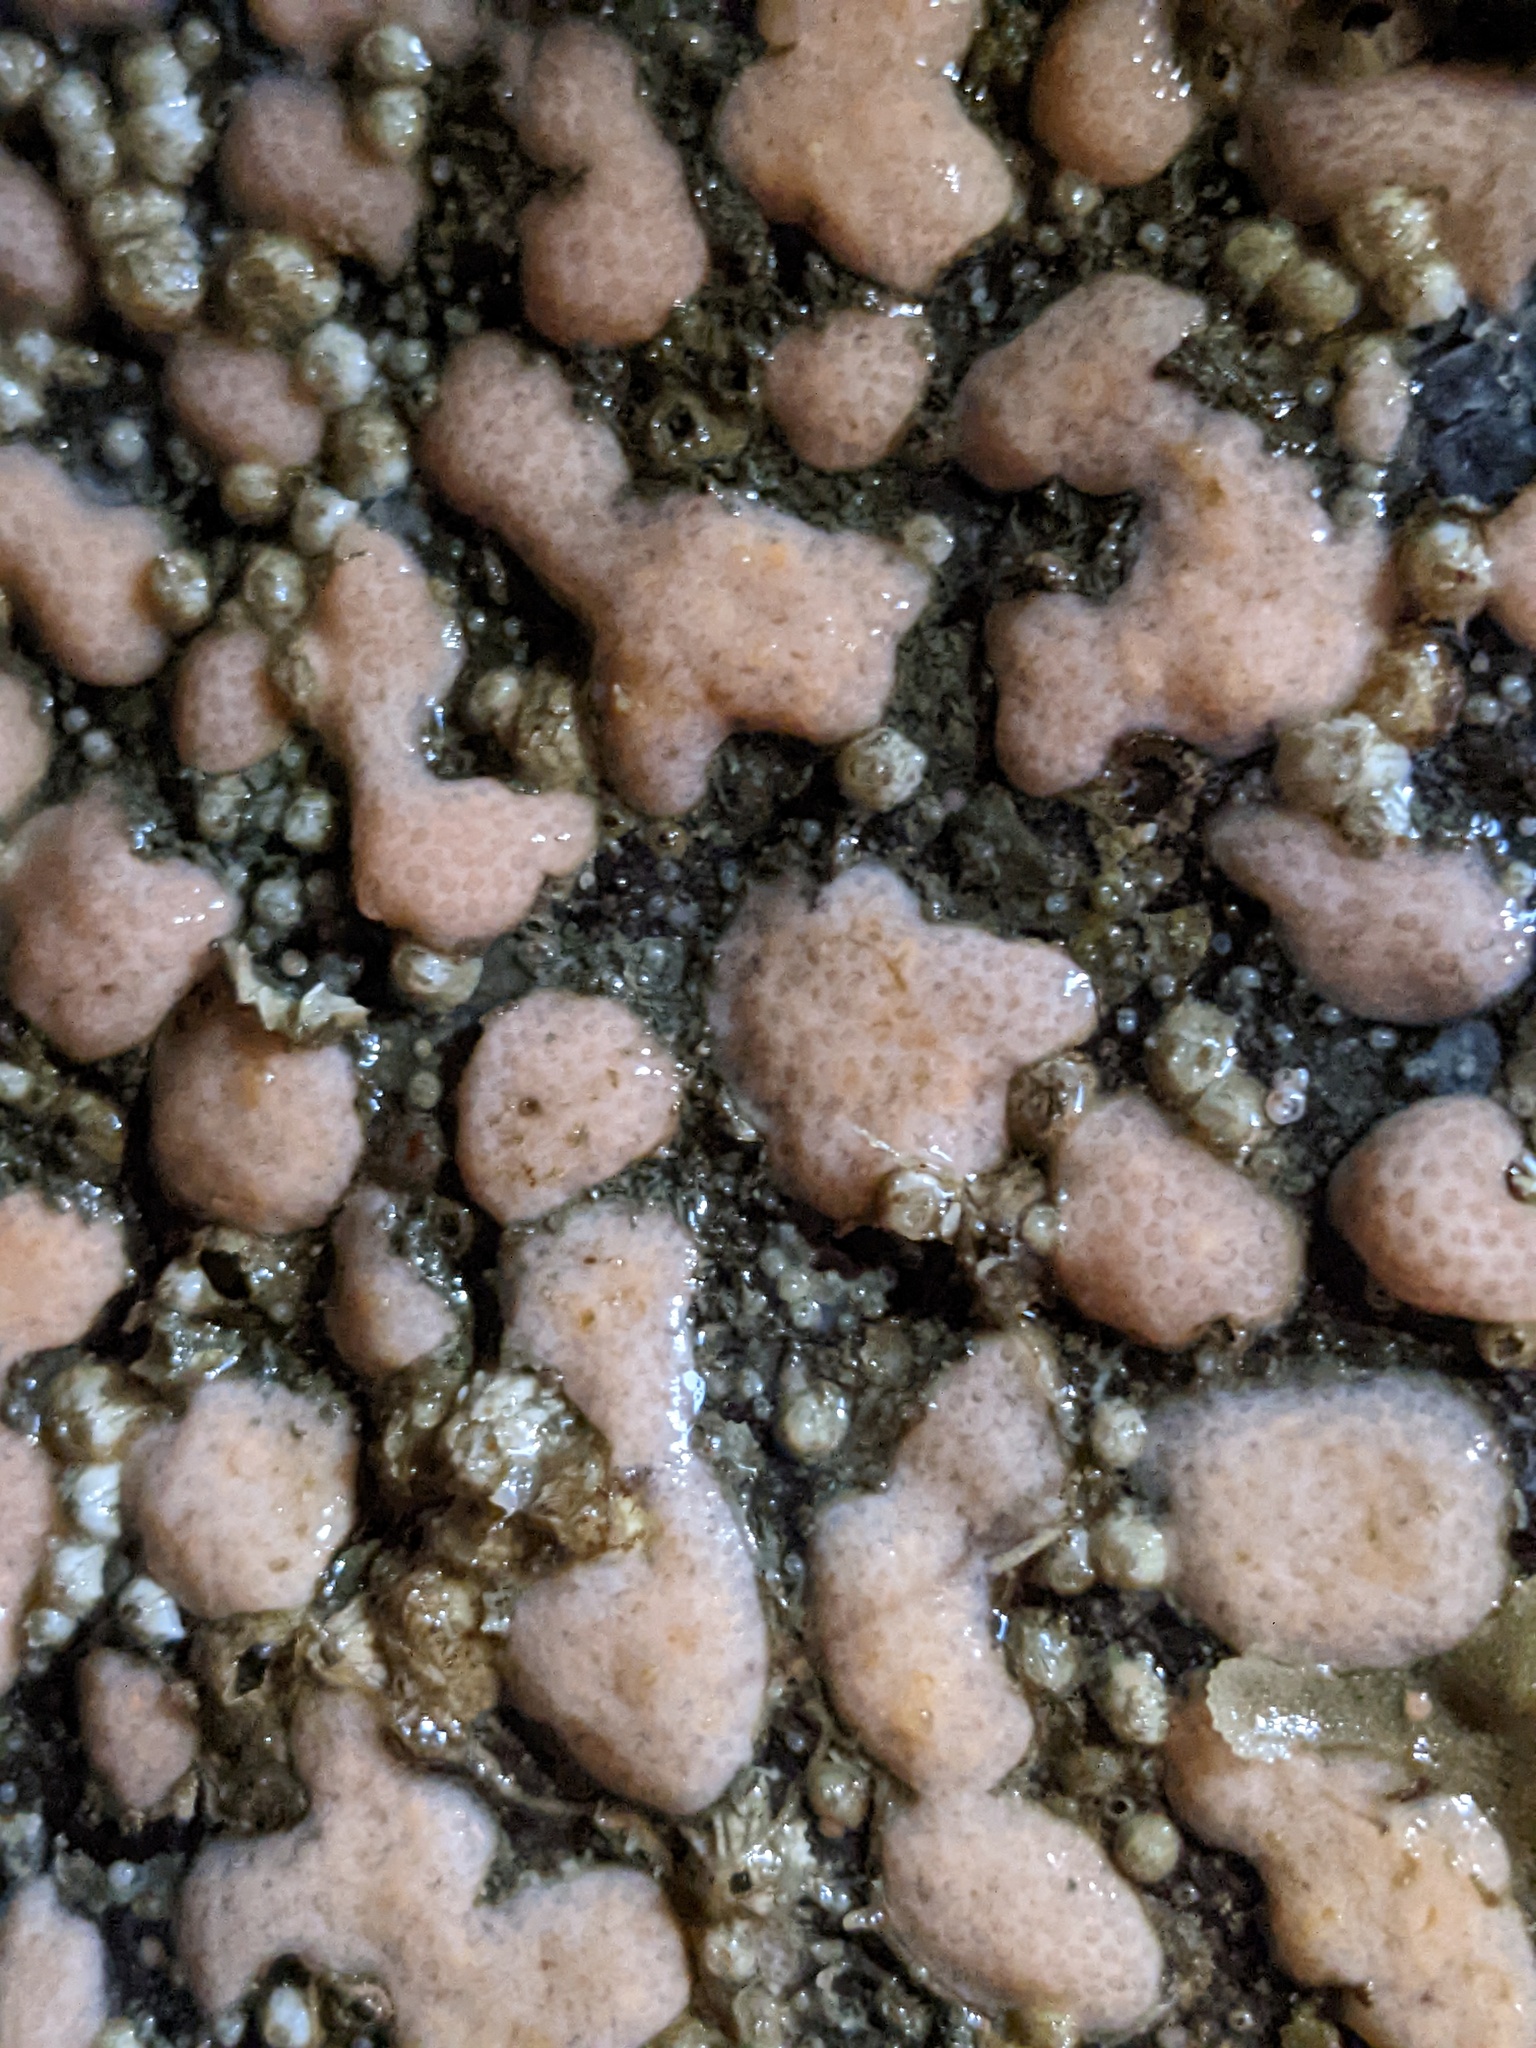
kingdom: Animalia
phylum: Cnidaria
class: Anthozoa
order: Malacalcyonacea
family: Discophytidae
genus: Discophyton
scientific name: Discophyton rudyi
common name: White disc soft coral
